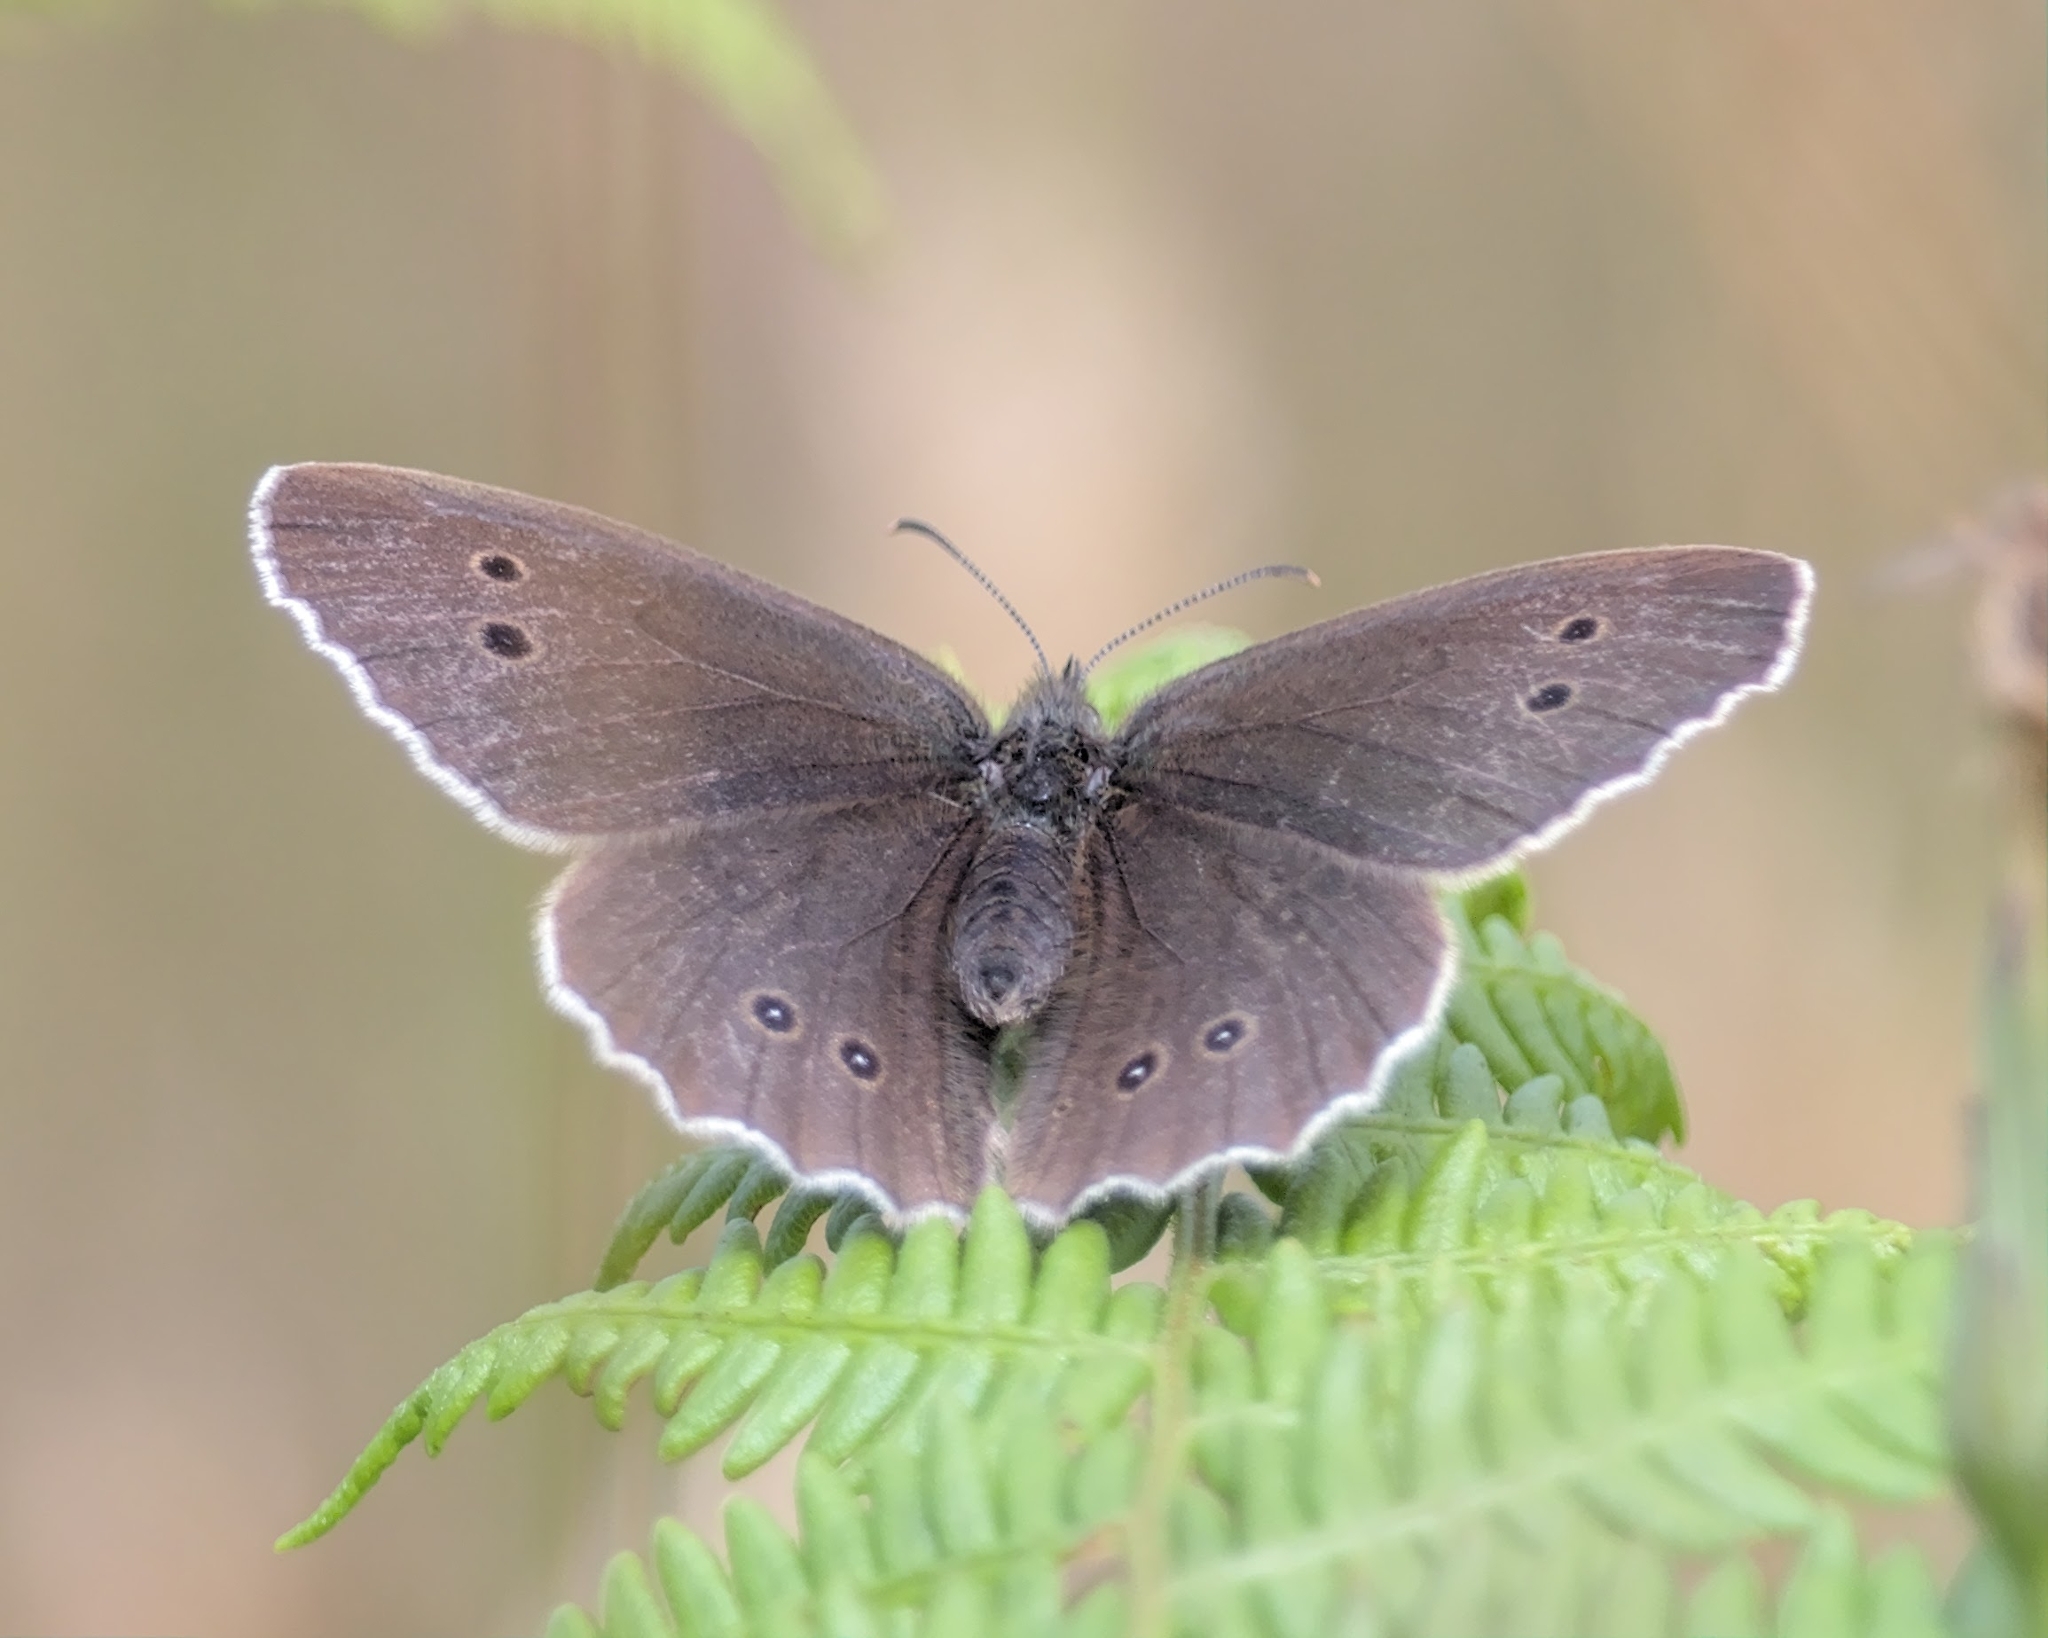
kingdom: Animalia
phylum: Arthropoda
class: Insecta
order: Lepidoptera
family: Nymphalidae
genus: Aphantopus
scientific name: Aphantopus hyperantus
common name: Ringlet
